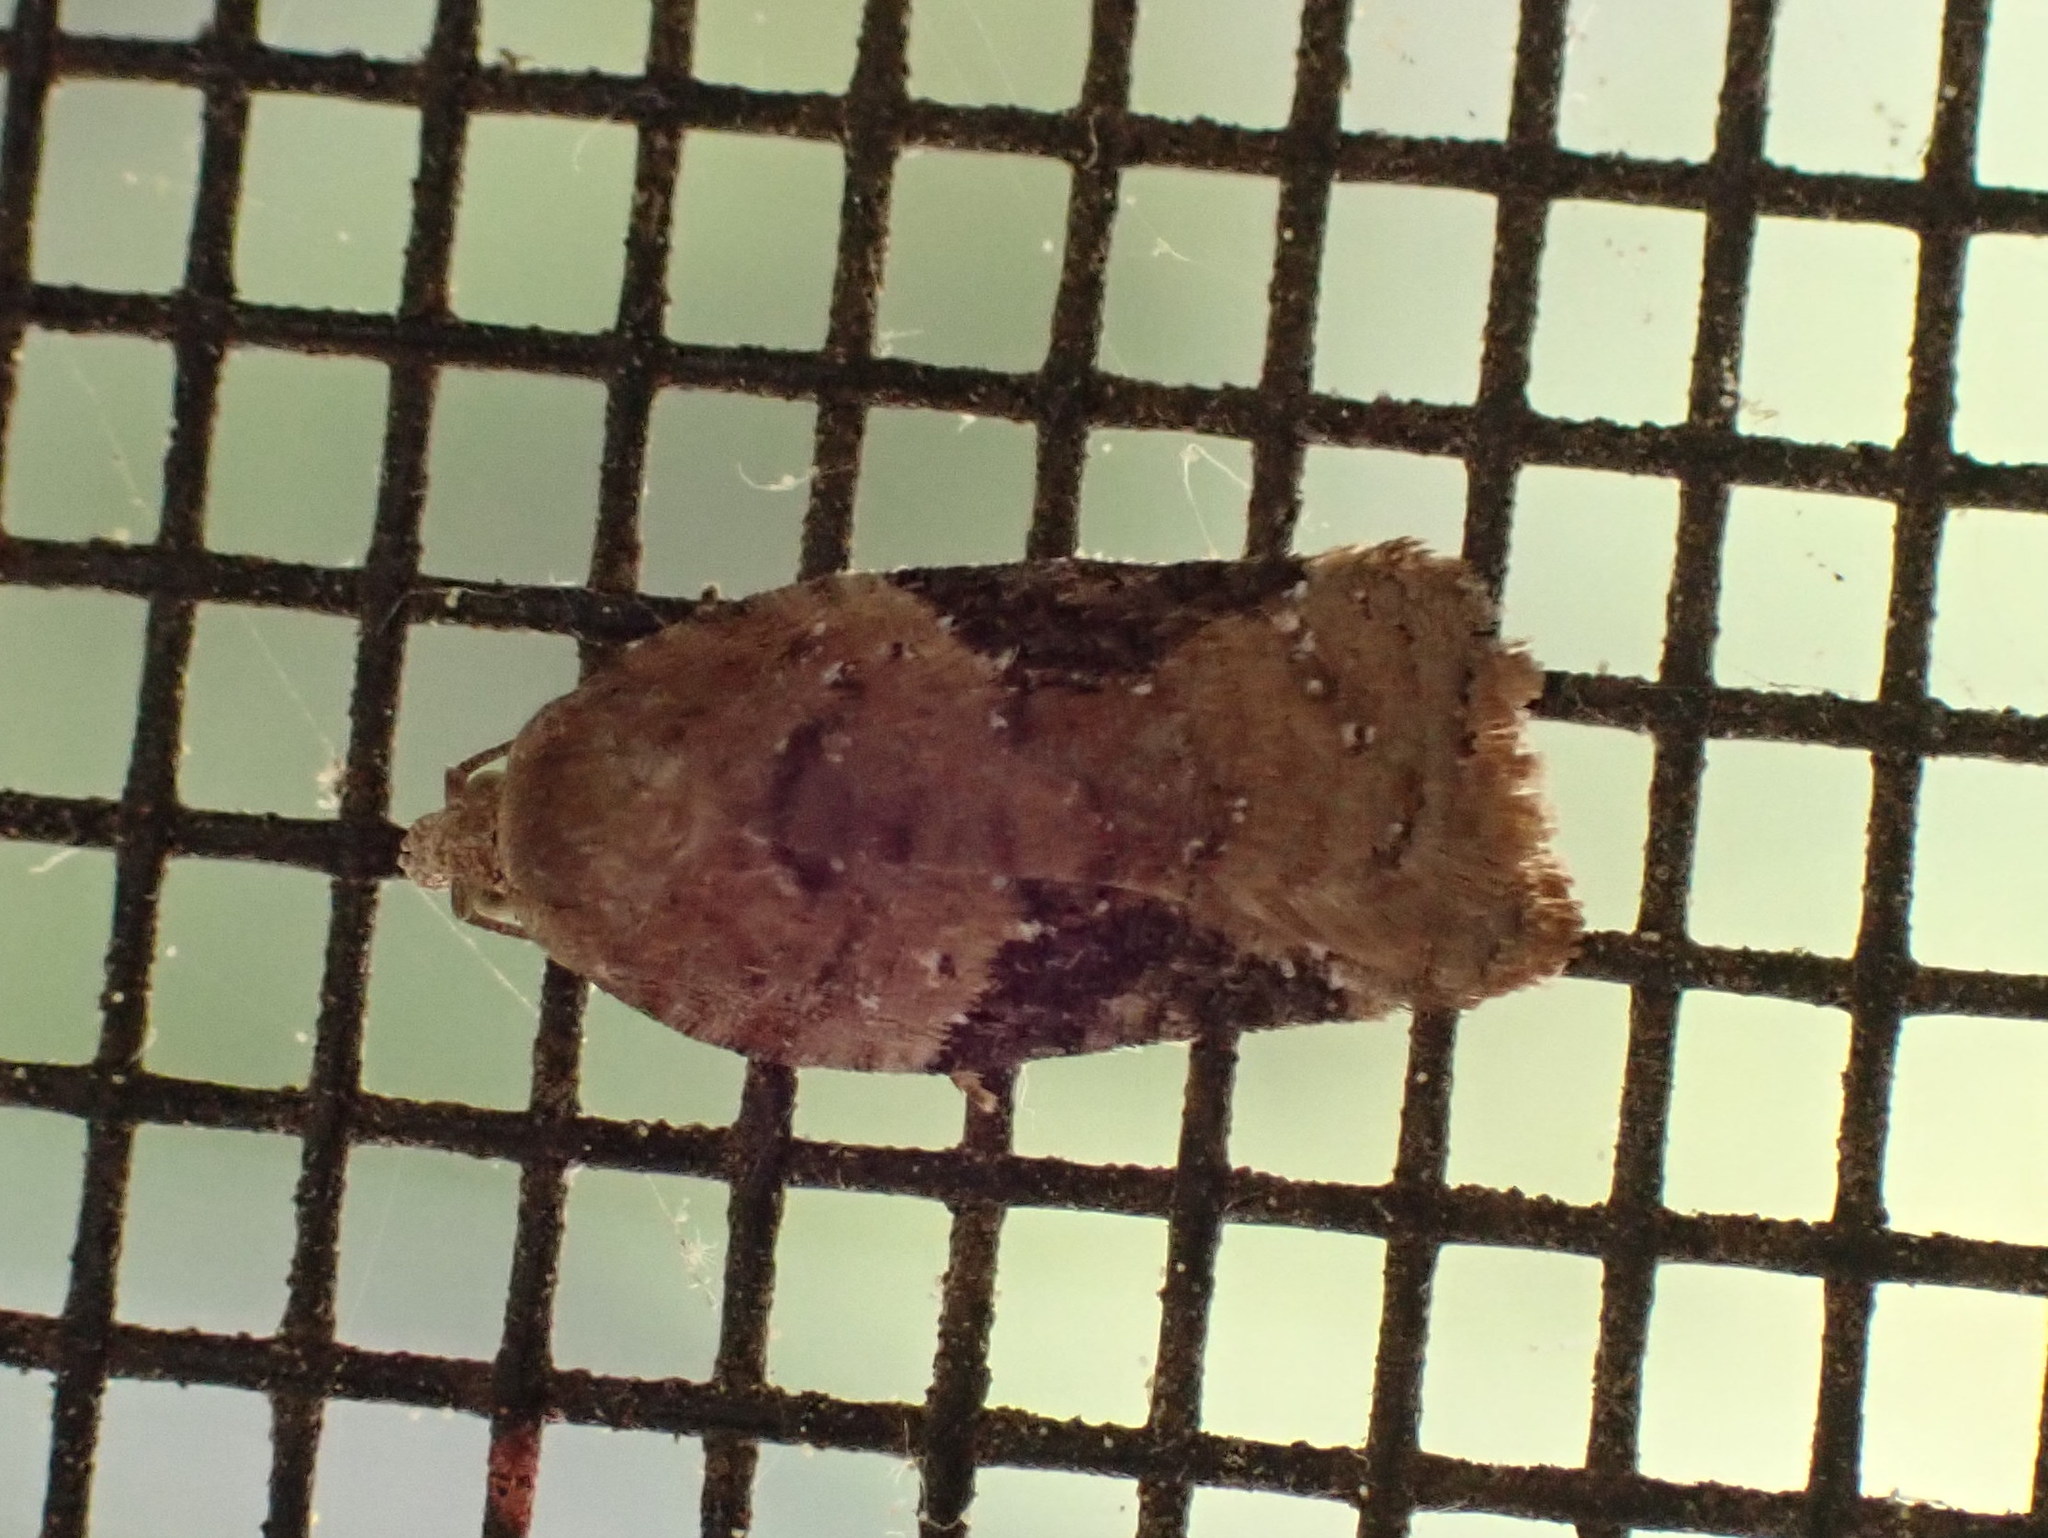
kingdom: Animalia
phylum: Arthropoda
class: Insecta
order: Lepidoptera
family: Tortricidae
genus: Acleris
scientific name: Acleris braunana
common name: Alder leafroller
